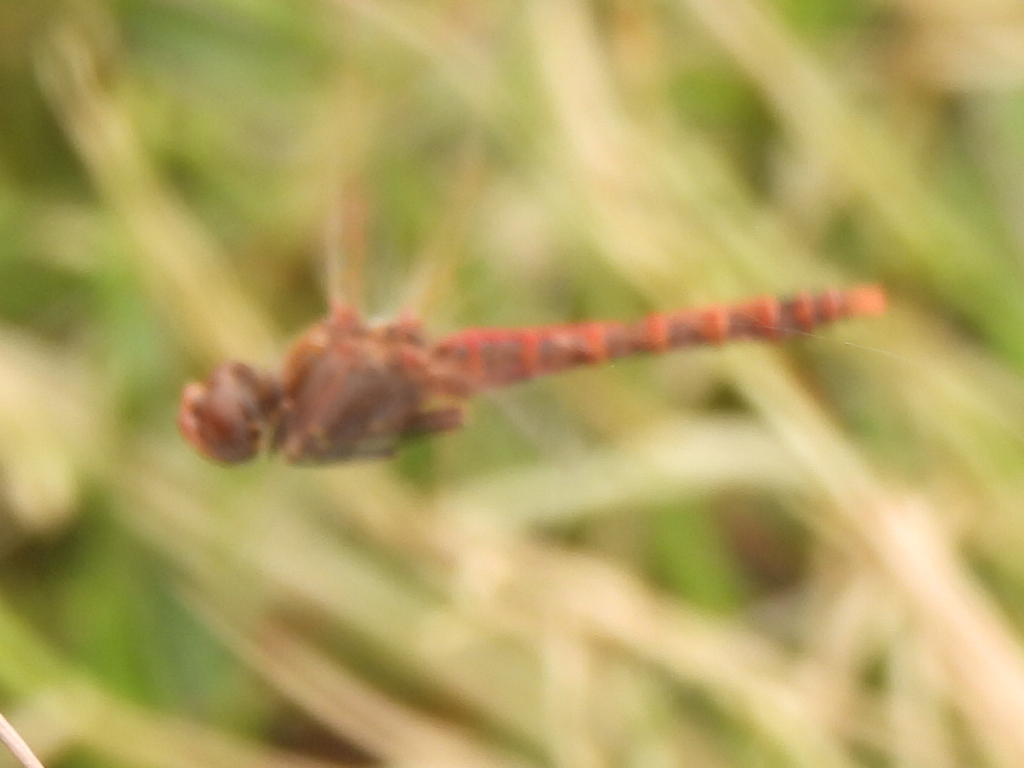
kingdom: Animalia
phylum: Arthropoda
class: Insecta
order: Odonata
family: Libellulidae
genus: Sympetrum
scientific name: Sympetrum corruptum
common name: Variegated meadowhawk
